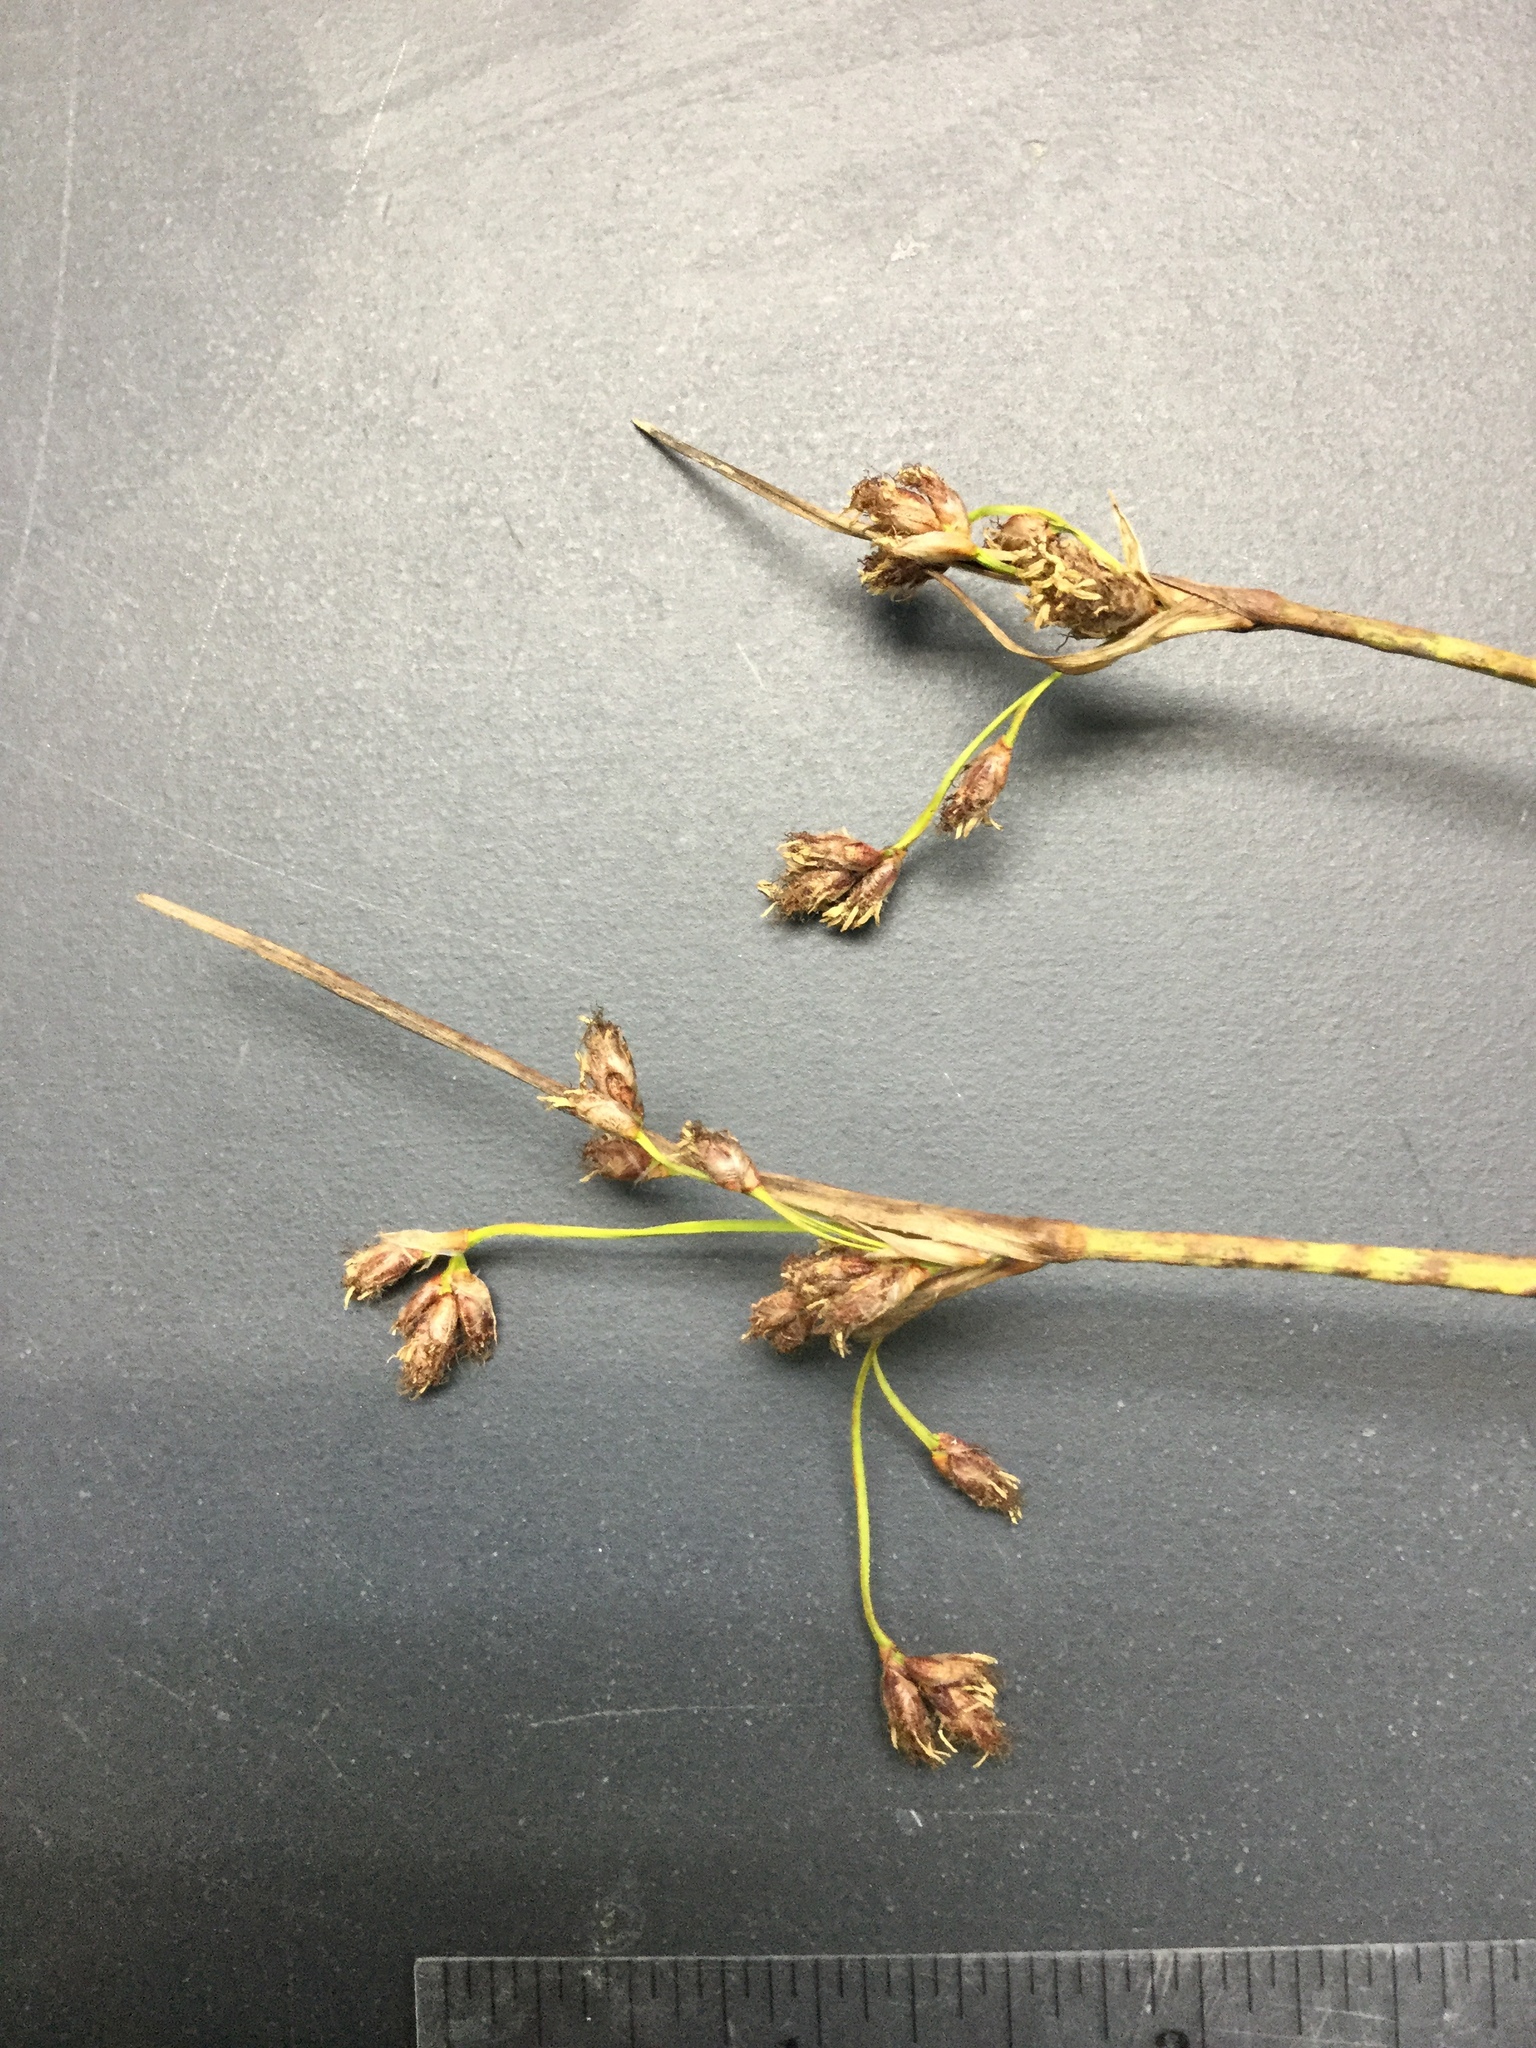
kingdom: Plantae
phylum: Tracheophyta
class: Liliopsida
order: Poales
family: Cyperaceae
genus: Schoenoplectus
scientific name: Schoenoplectus acutus
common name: Hardstem bulrush
